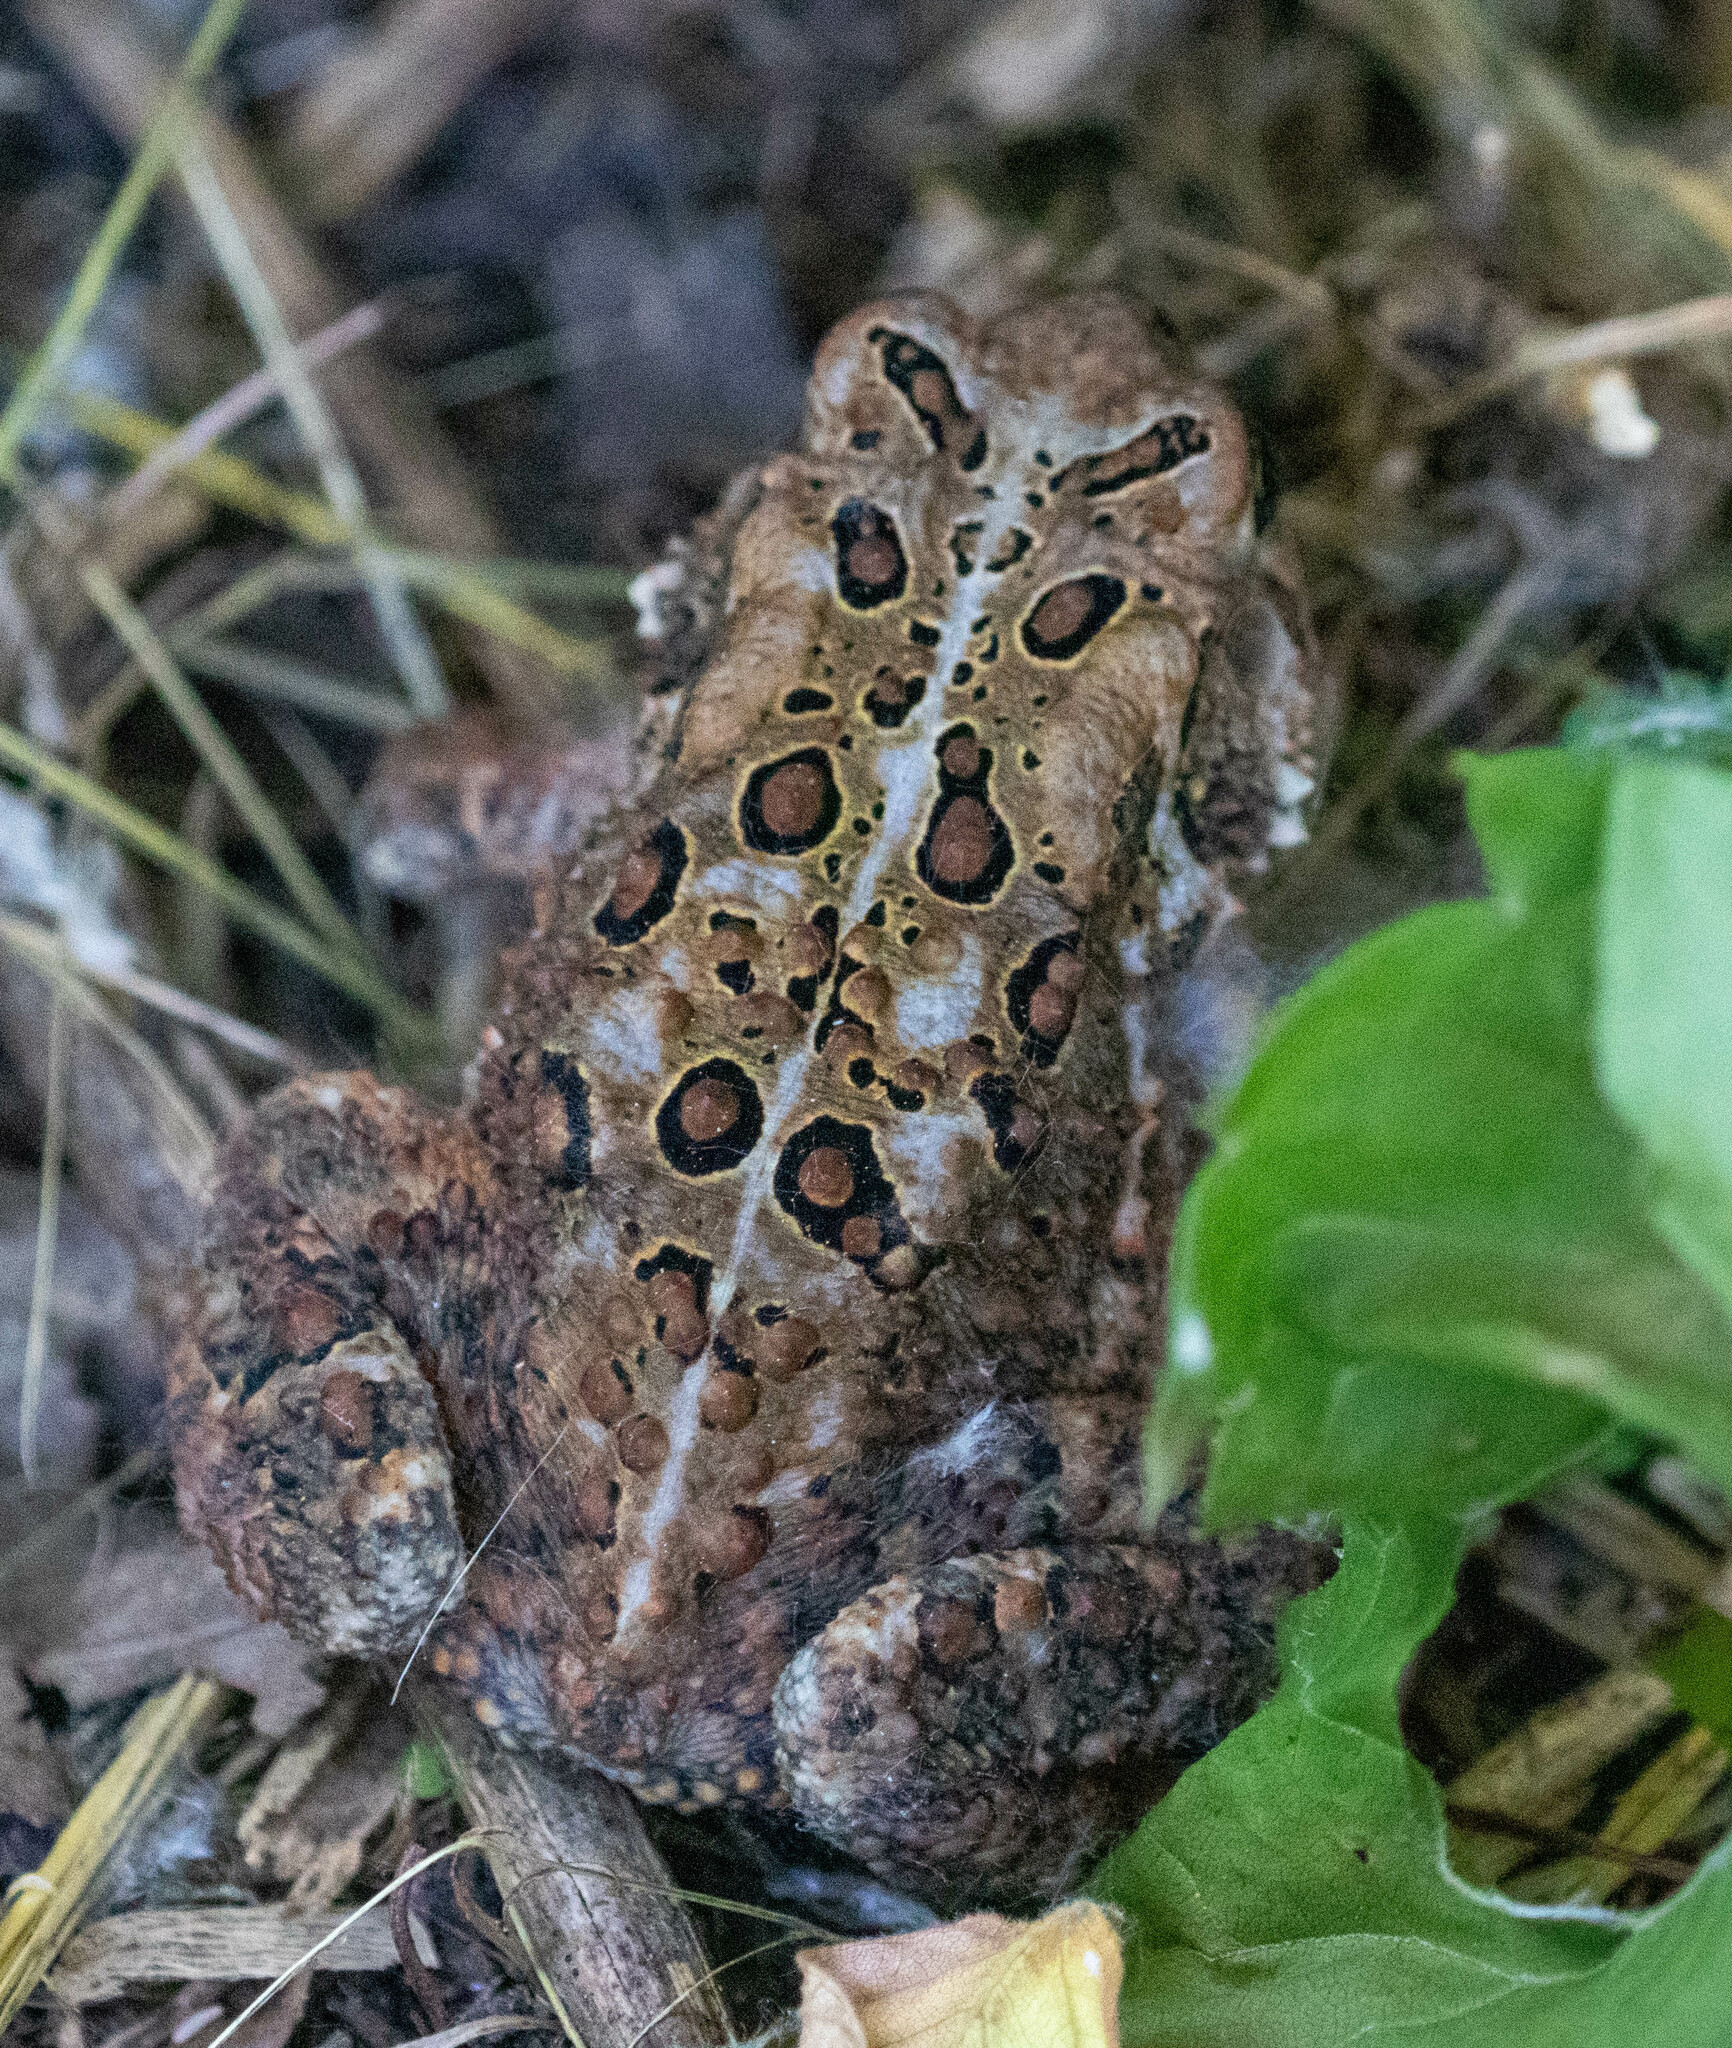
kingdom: Animalia
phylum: Chordata
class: Amphibia
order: Anura
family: Bufonidae
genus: Anaxyrus
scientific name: Anaxyrus americanus
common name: American toad
